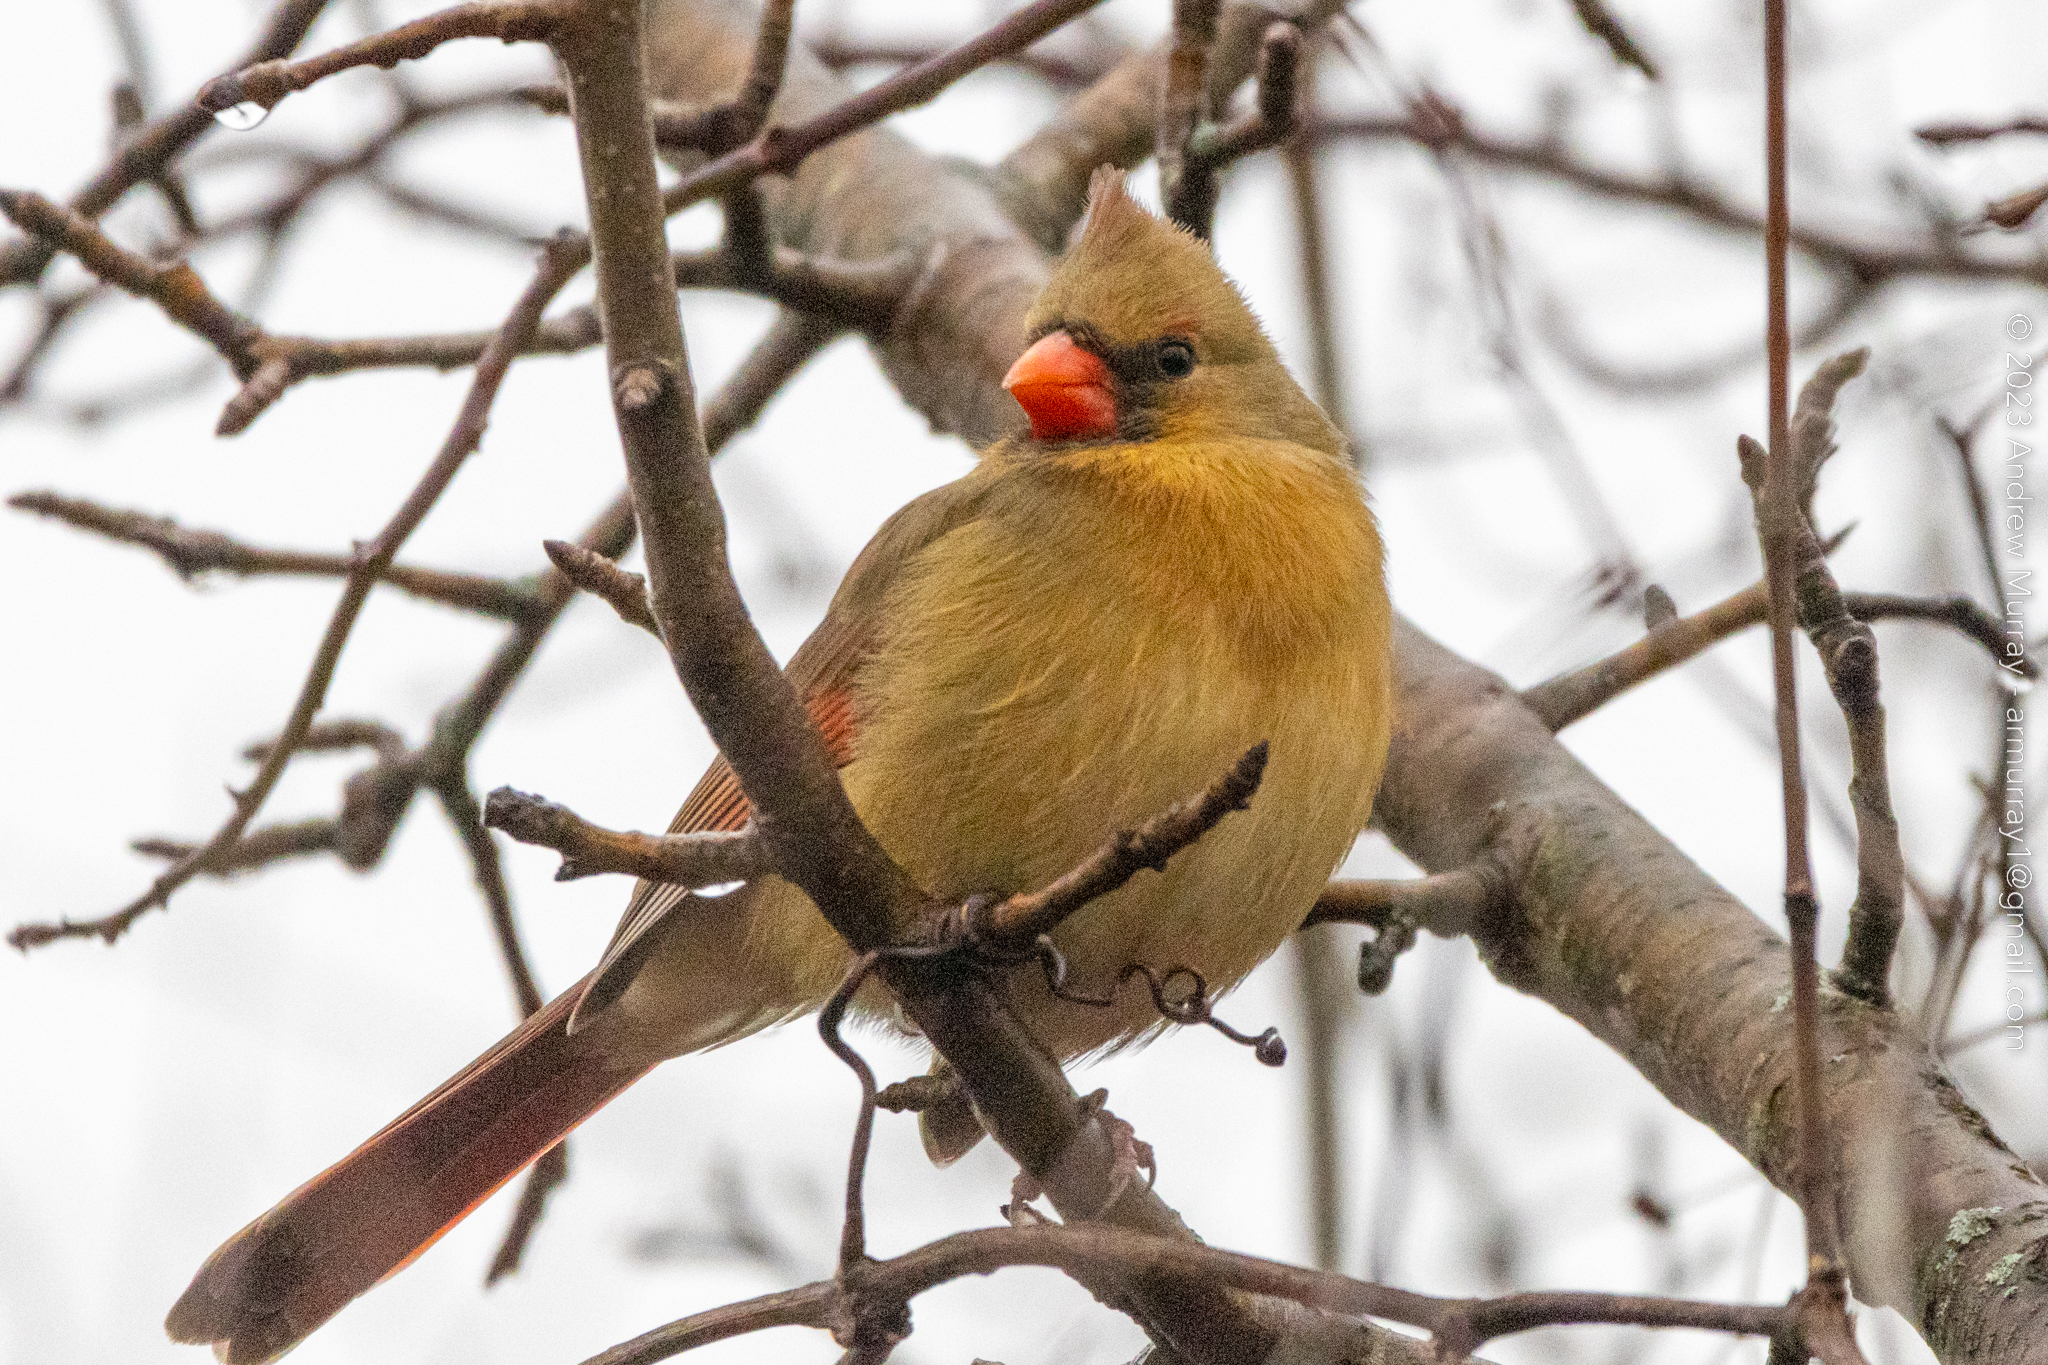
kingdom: Animalia
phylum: Chordata
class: Aves
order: Passeriformes
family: Cardinalidae
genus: Cardinalis
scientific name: Cardinalis cardinalis
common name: Northern cardinal
